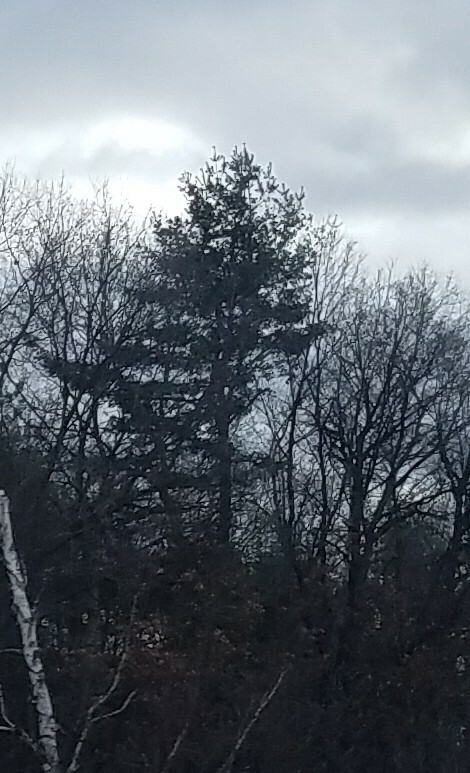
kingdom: Plantae
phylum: Tracheophyta
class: Pinopsida
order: Pinales
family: Pinaceae
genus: Pinus
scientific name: Pinus strobus
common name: Weymouth pine
